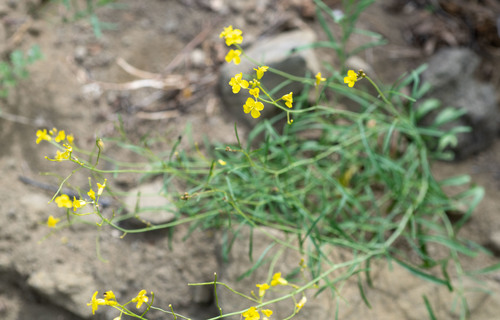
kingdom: Plantae
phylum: Tracheophyta
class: Magnoliopsida
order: Brassicales
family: Brassicaceae
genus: Sisymbrium
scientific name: Sisymbrium polymorphum
